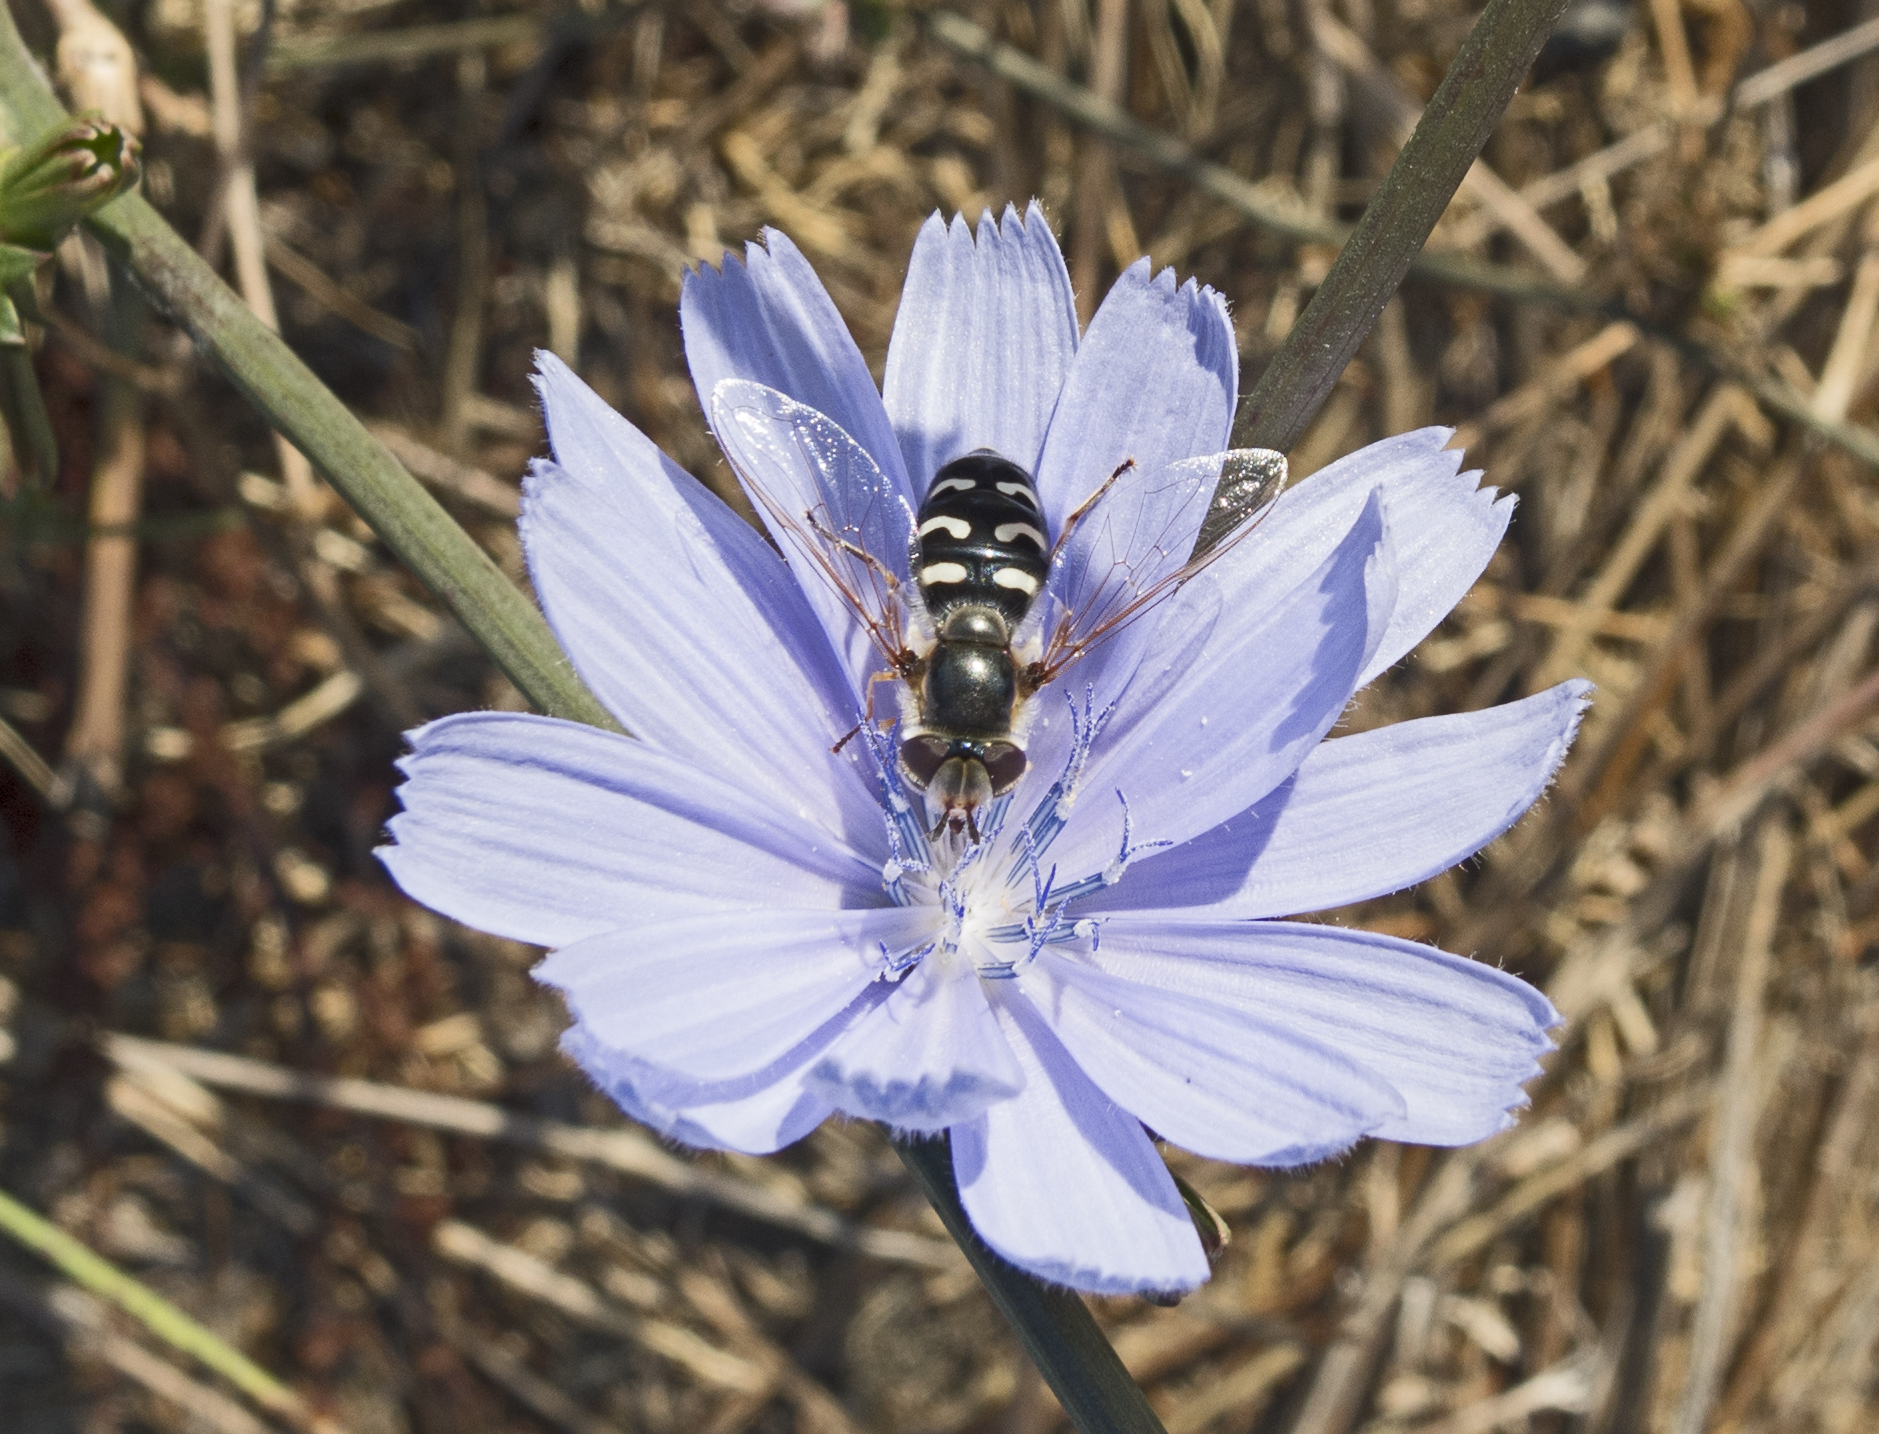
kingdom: Animalia
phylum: Arthropoda
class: Insecta
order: Diptera
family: Syrphidae
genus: Scaeva
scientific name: Scaeva pyrastri
